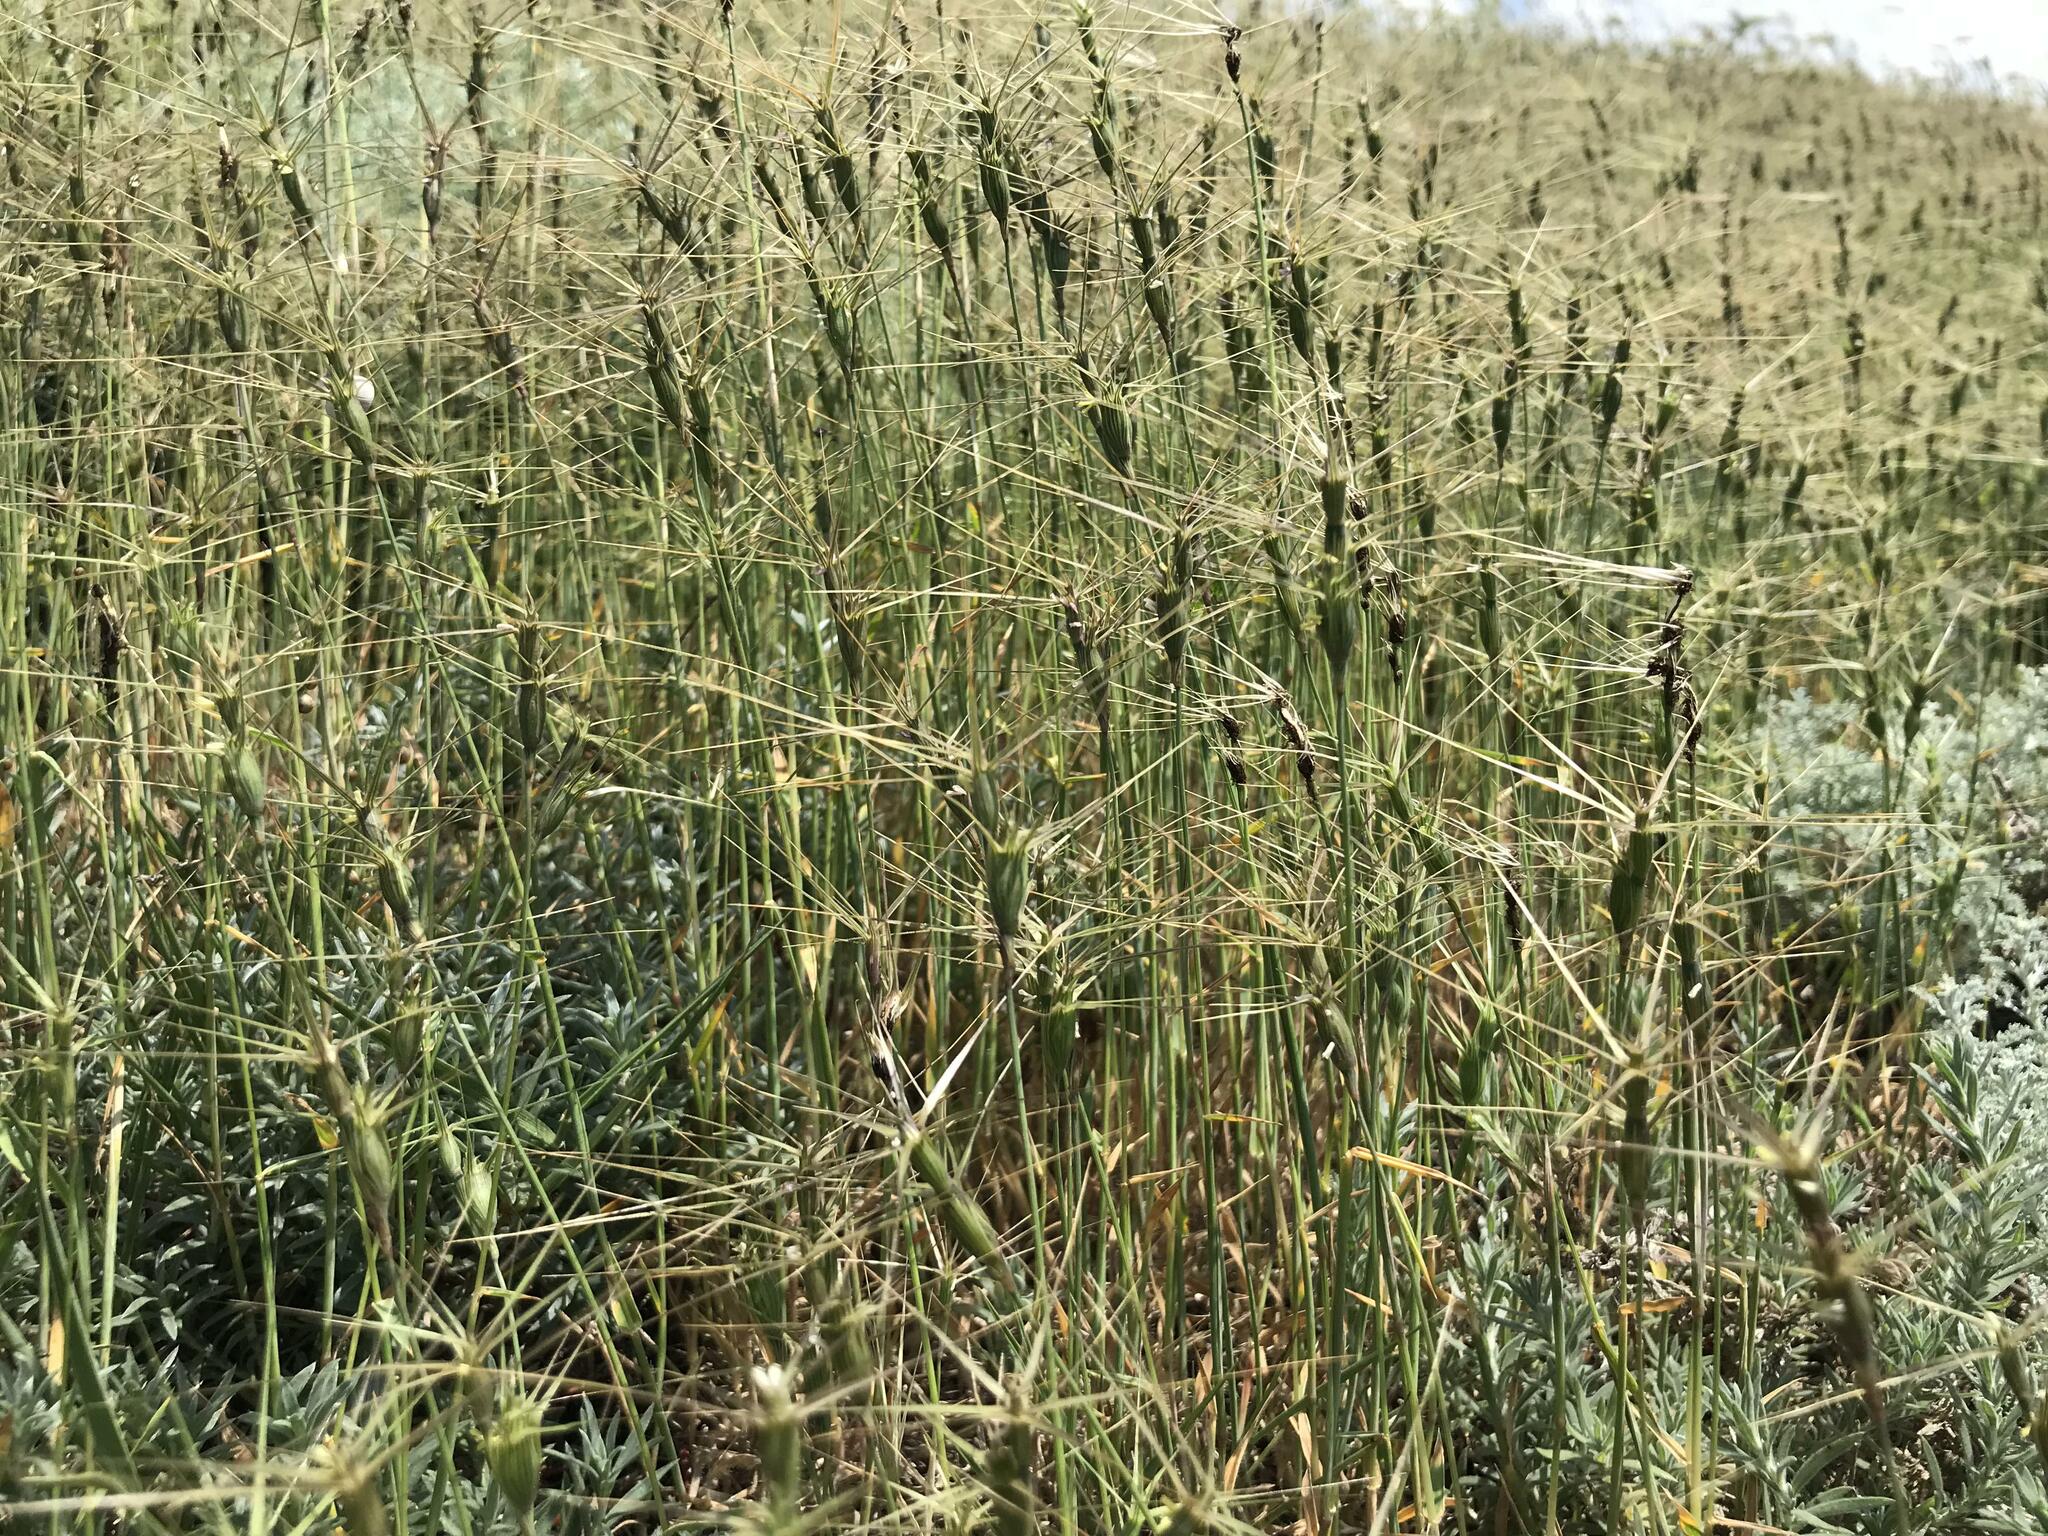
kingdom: Plantae
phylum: Tracheophyta
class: Liliopsida
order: Poales
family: Poaceae
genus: Aegilops
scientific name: Aegilops triuncialis
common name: Barb goat grass
